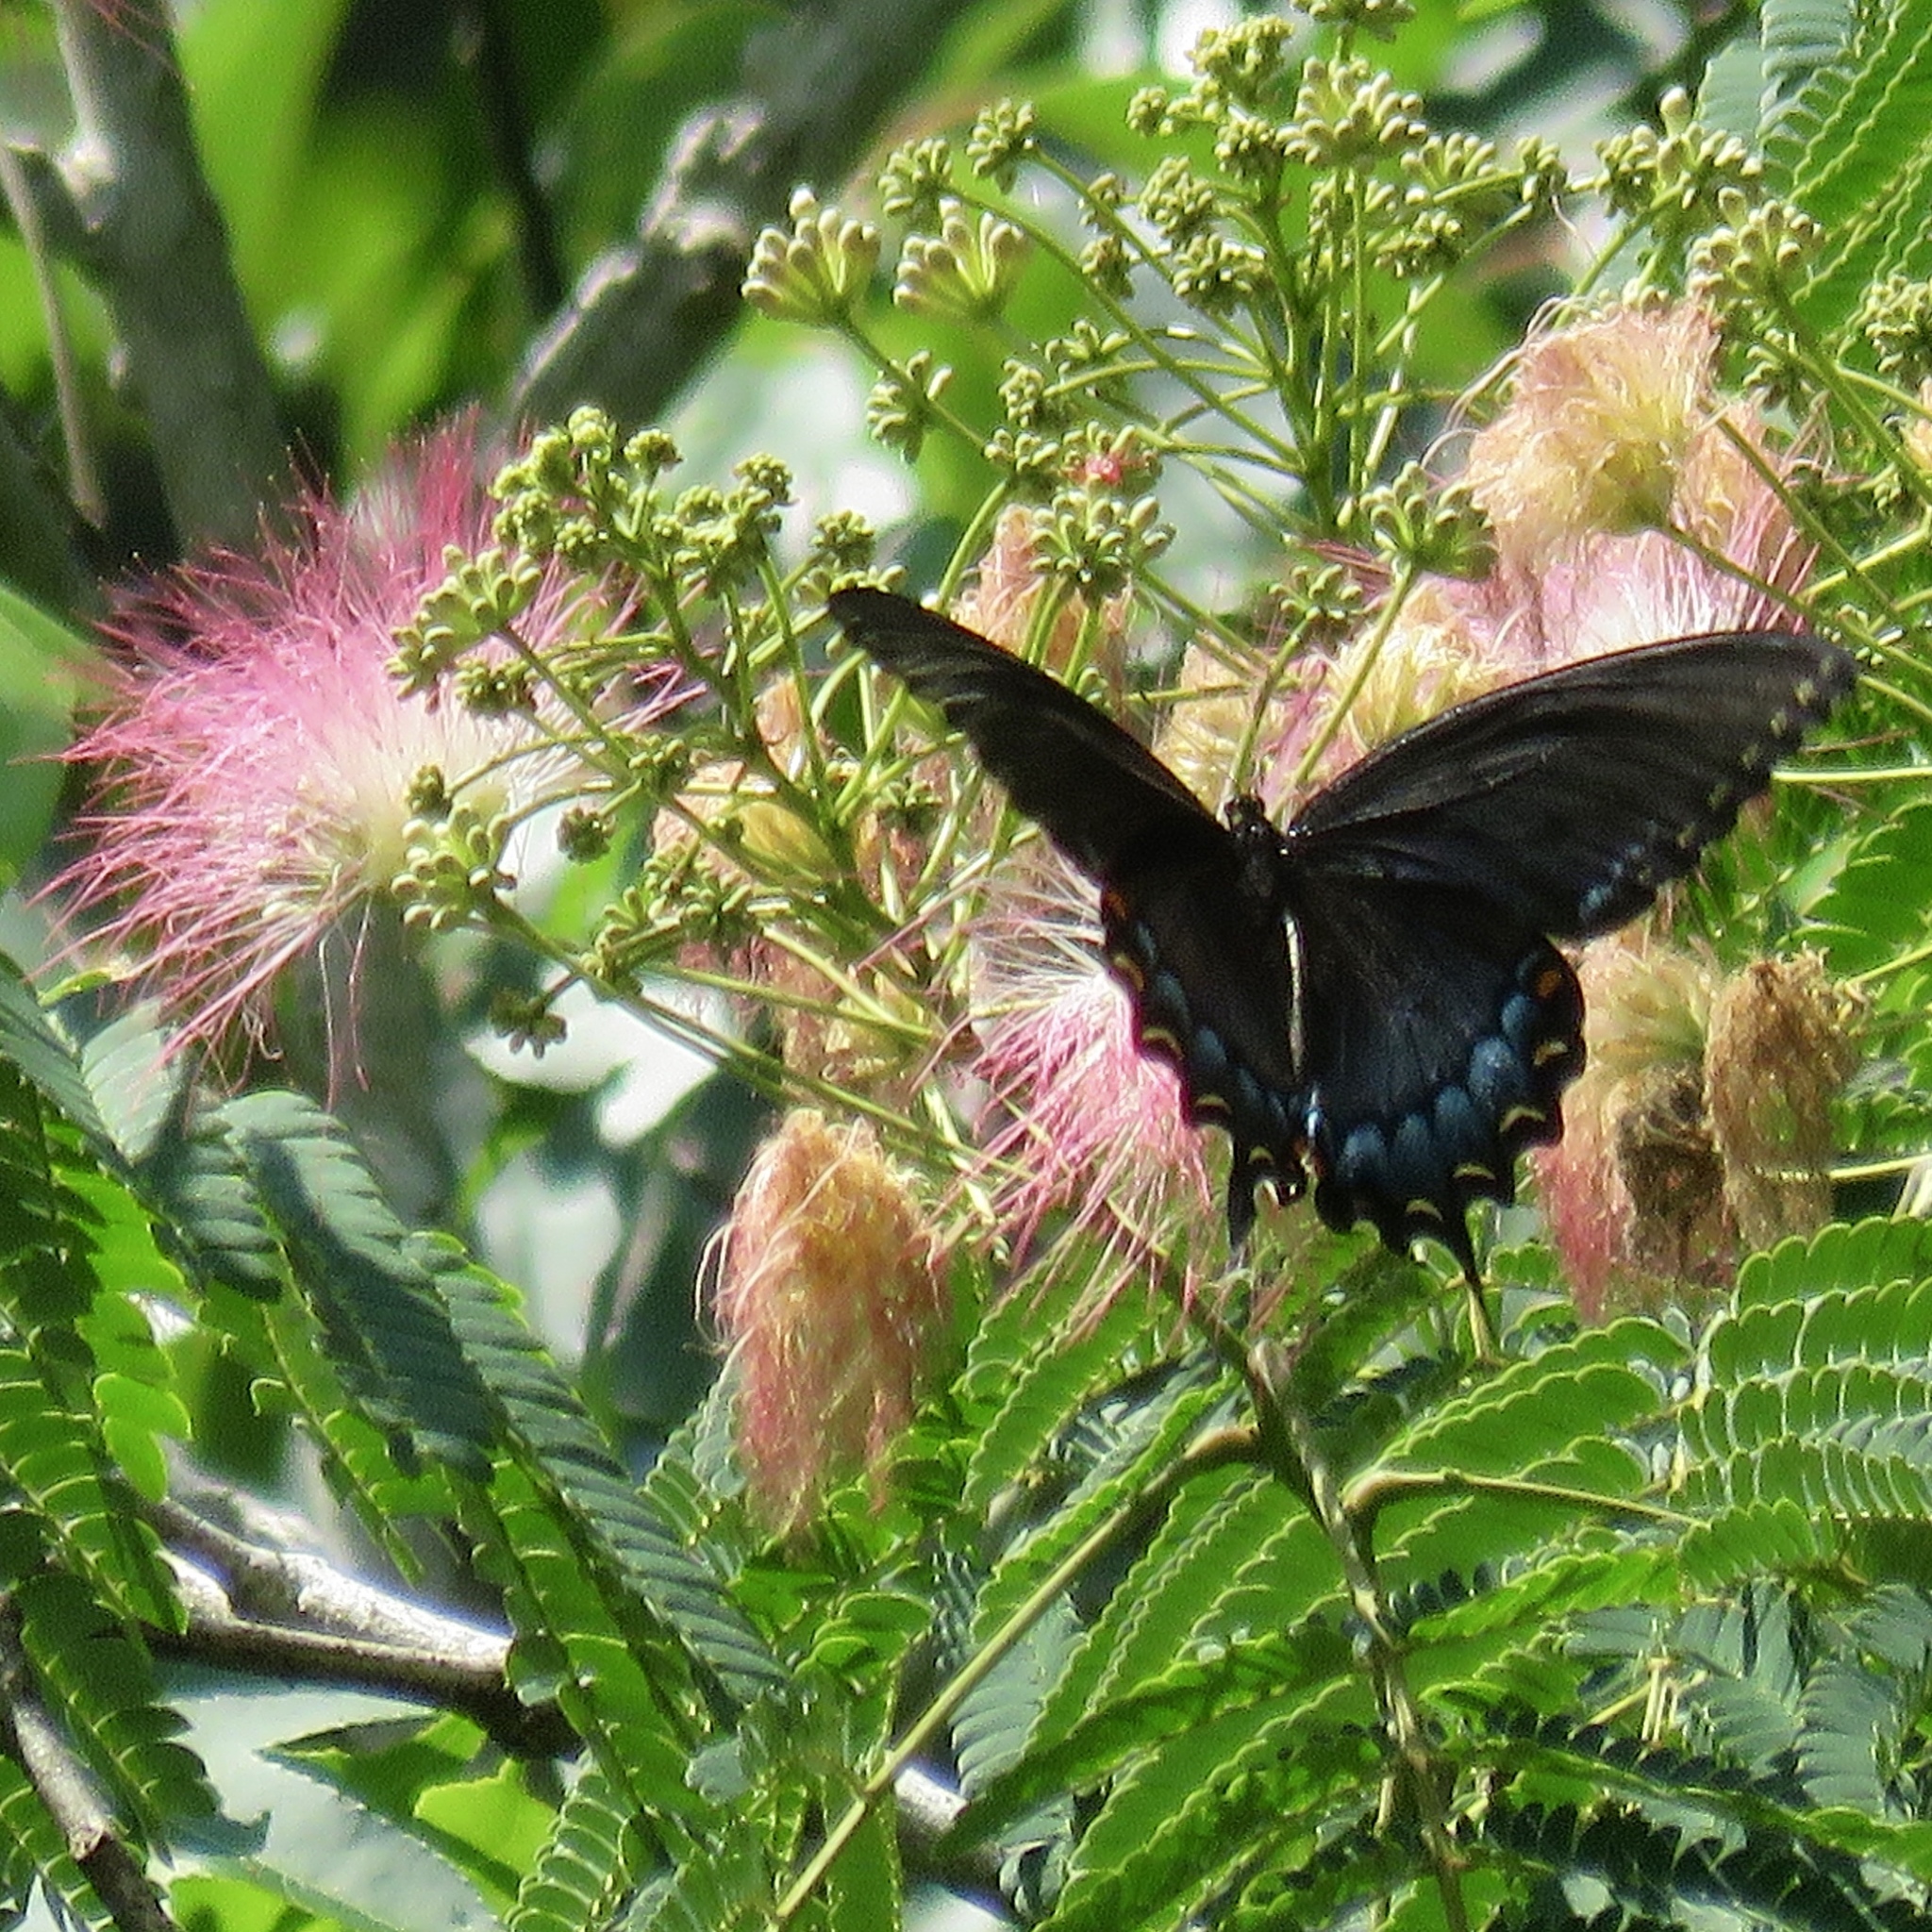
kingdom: Animalia
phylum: Arthropoda
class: Insecta
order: Lepidoptera
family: Papilionidae
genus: Papilio
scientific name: Papilio glaucus
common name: Tiger swallowtail
